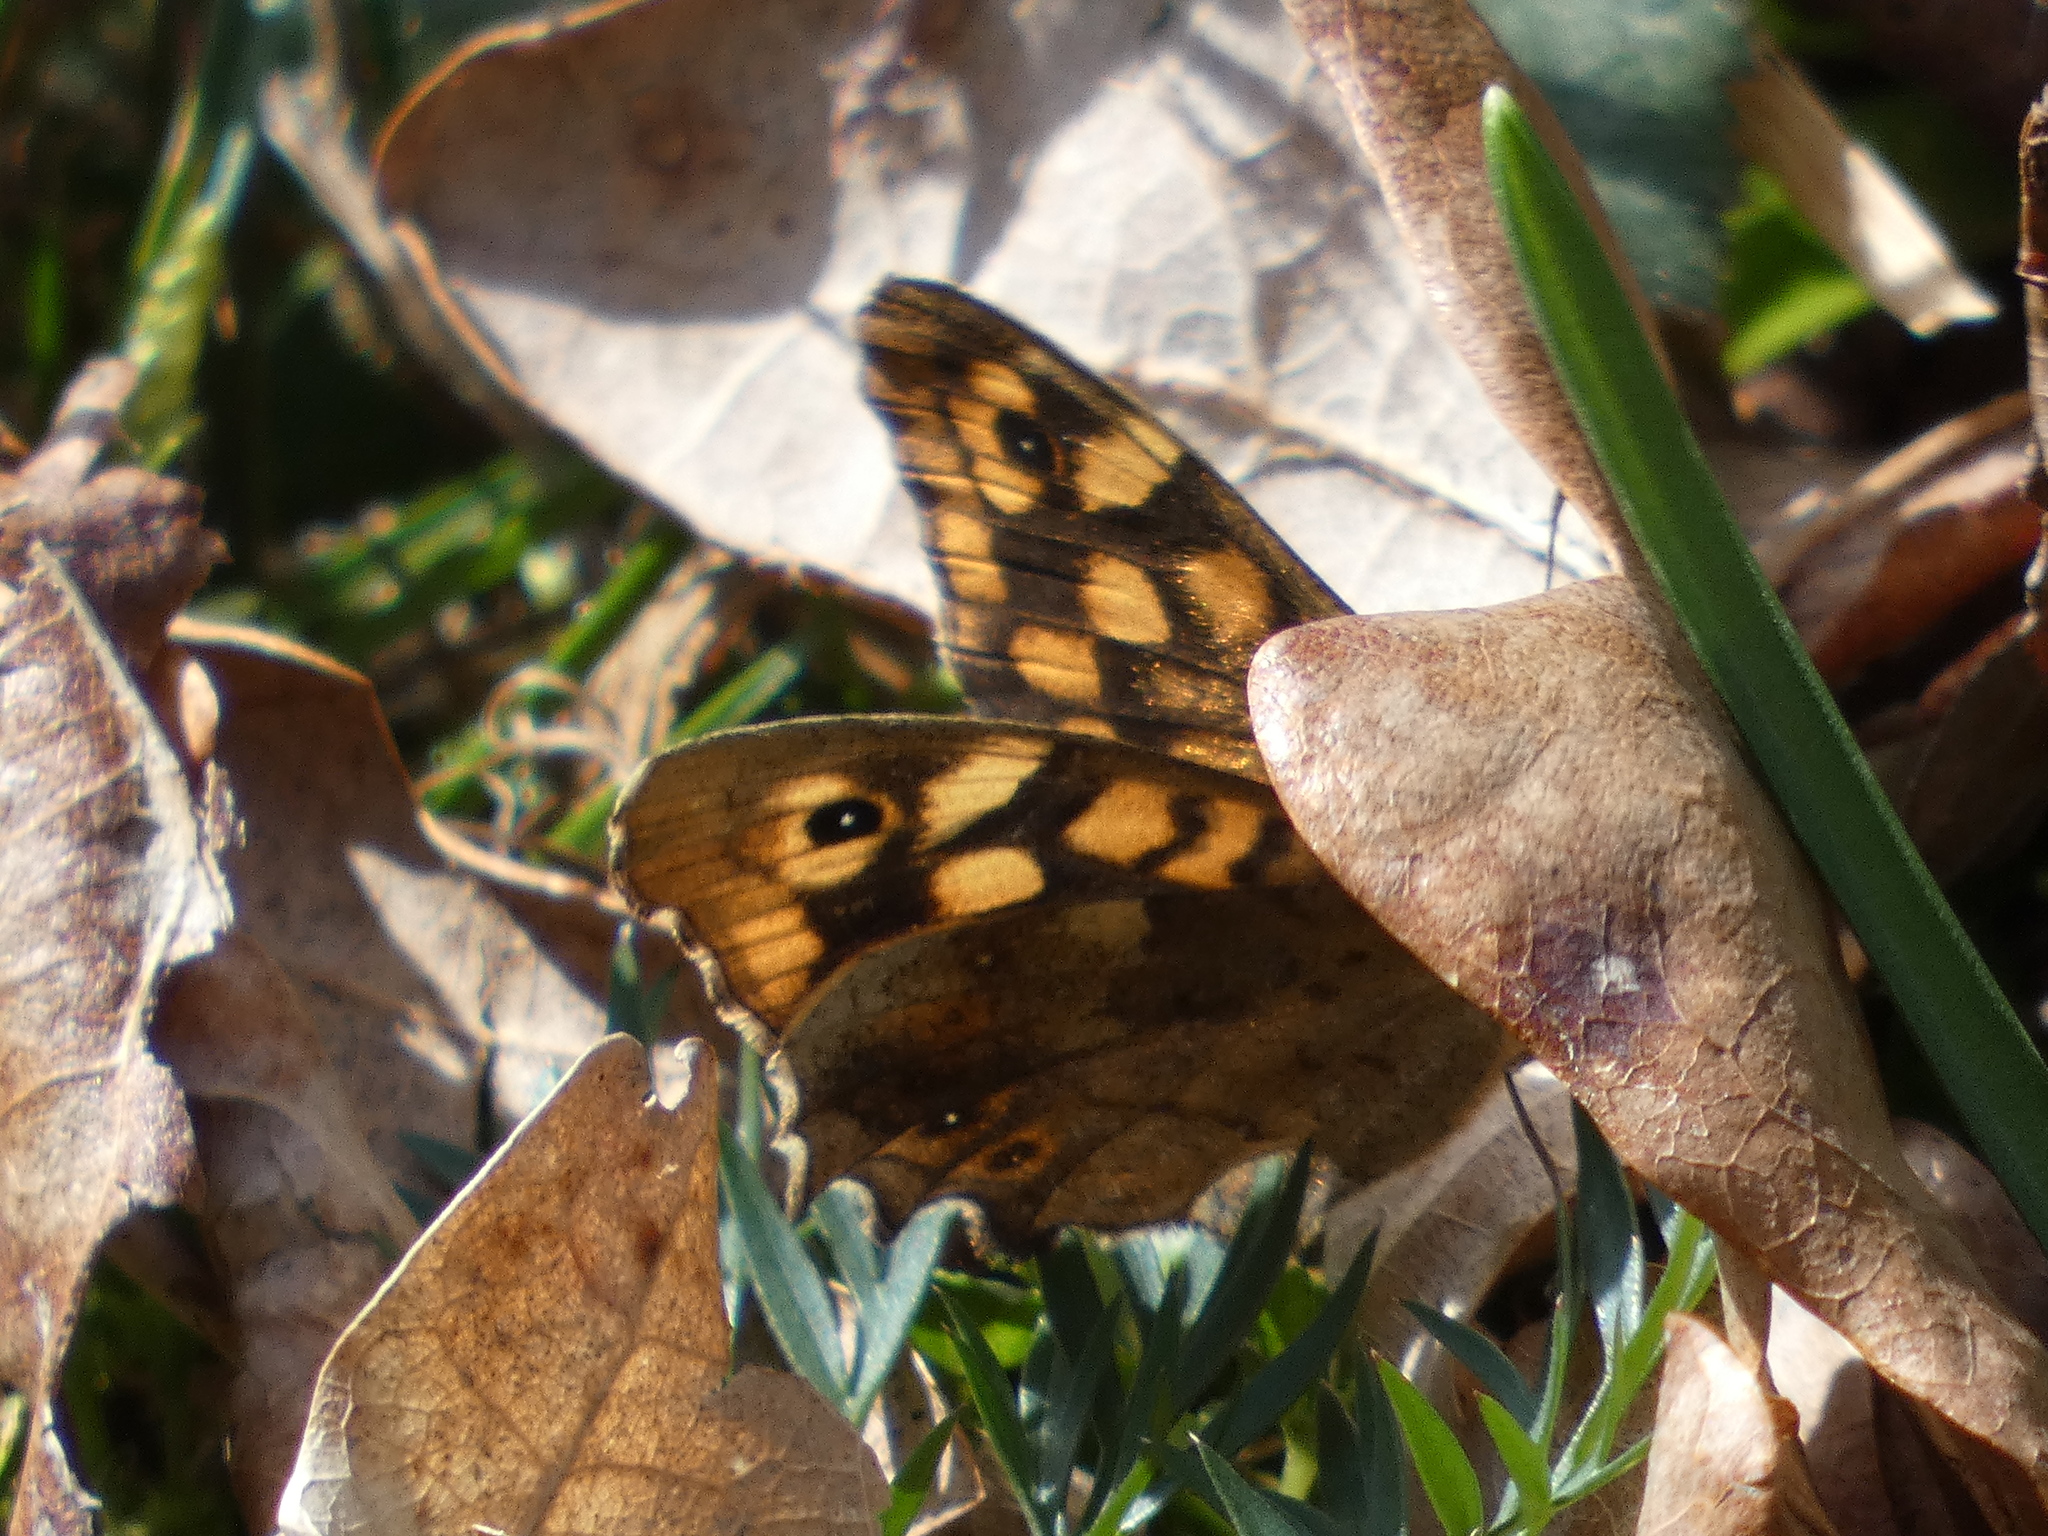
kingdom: Animalia
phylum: Arthropoda
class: Insecta
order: Lepidoptera
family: Nymphalidae
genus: Pararge
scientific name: Pararge aegeria
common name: Speckled wood
